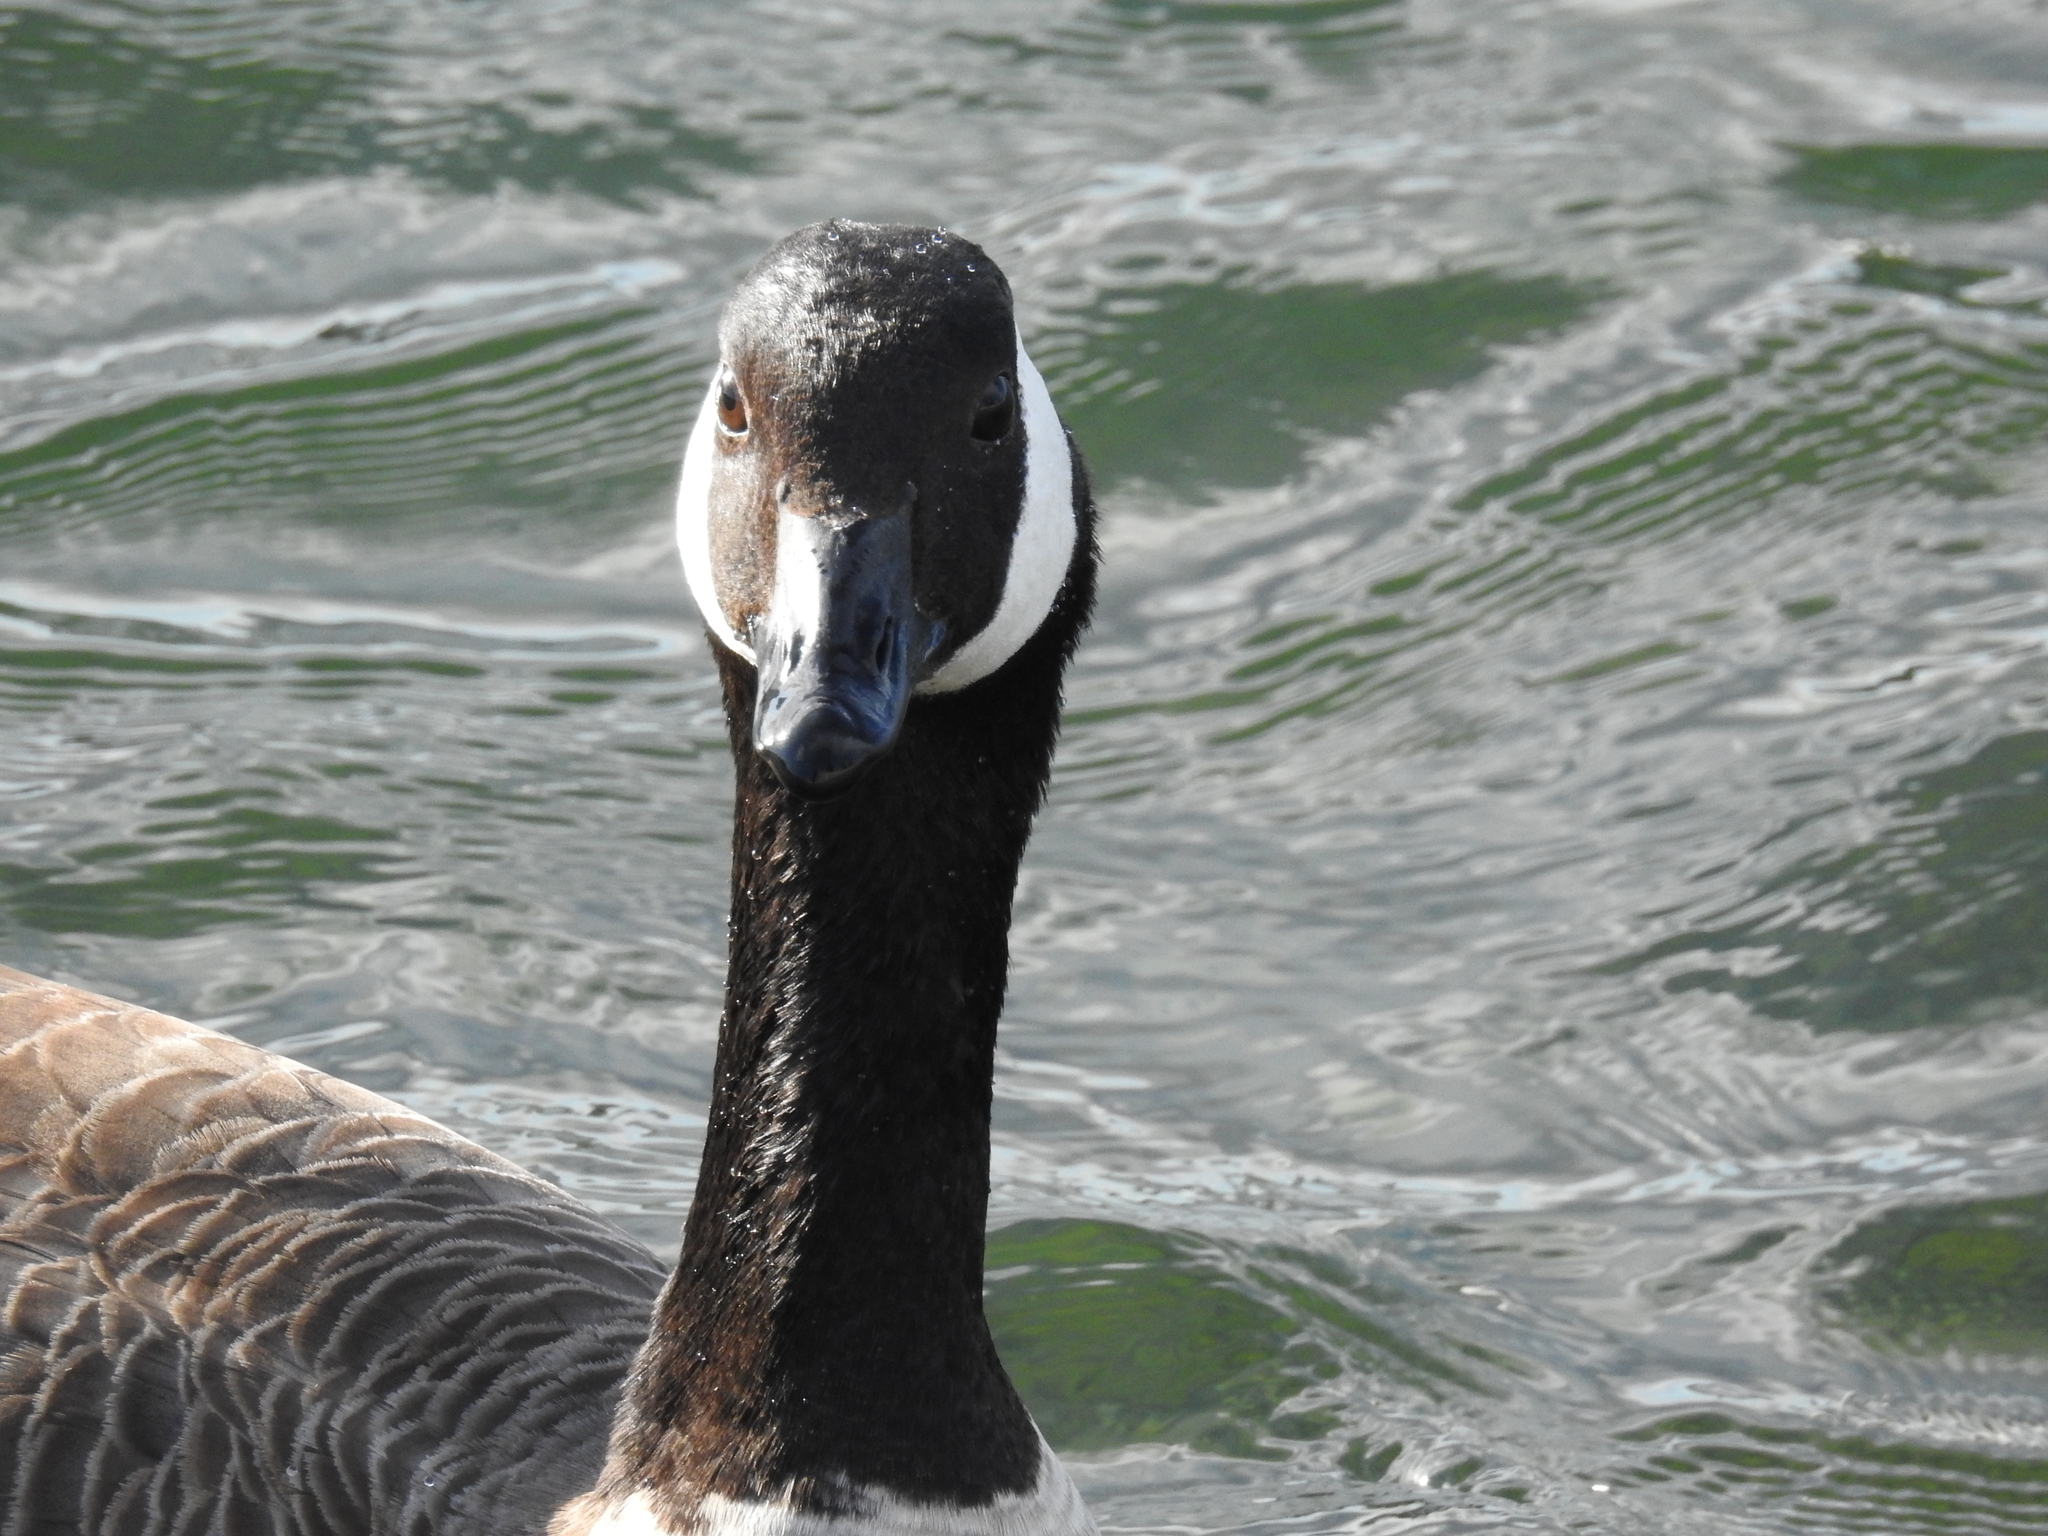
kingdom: Animalia
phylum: Chordata
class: Aves
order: Anseriformes
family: Anatidae
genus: Branta
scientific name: Branta canadensis
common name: Canada goose
